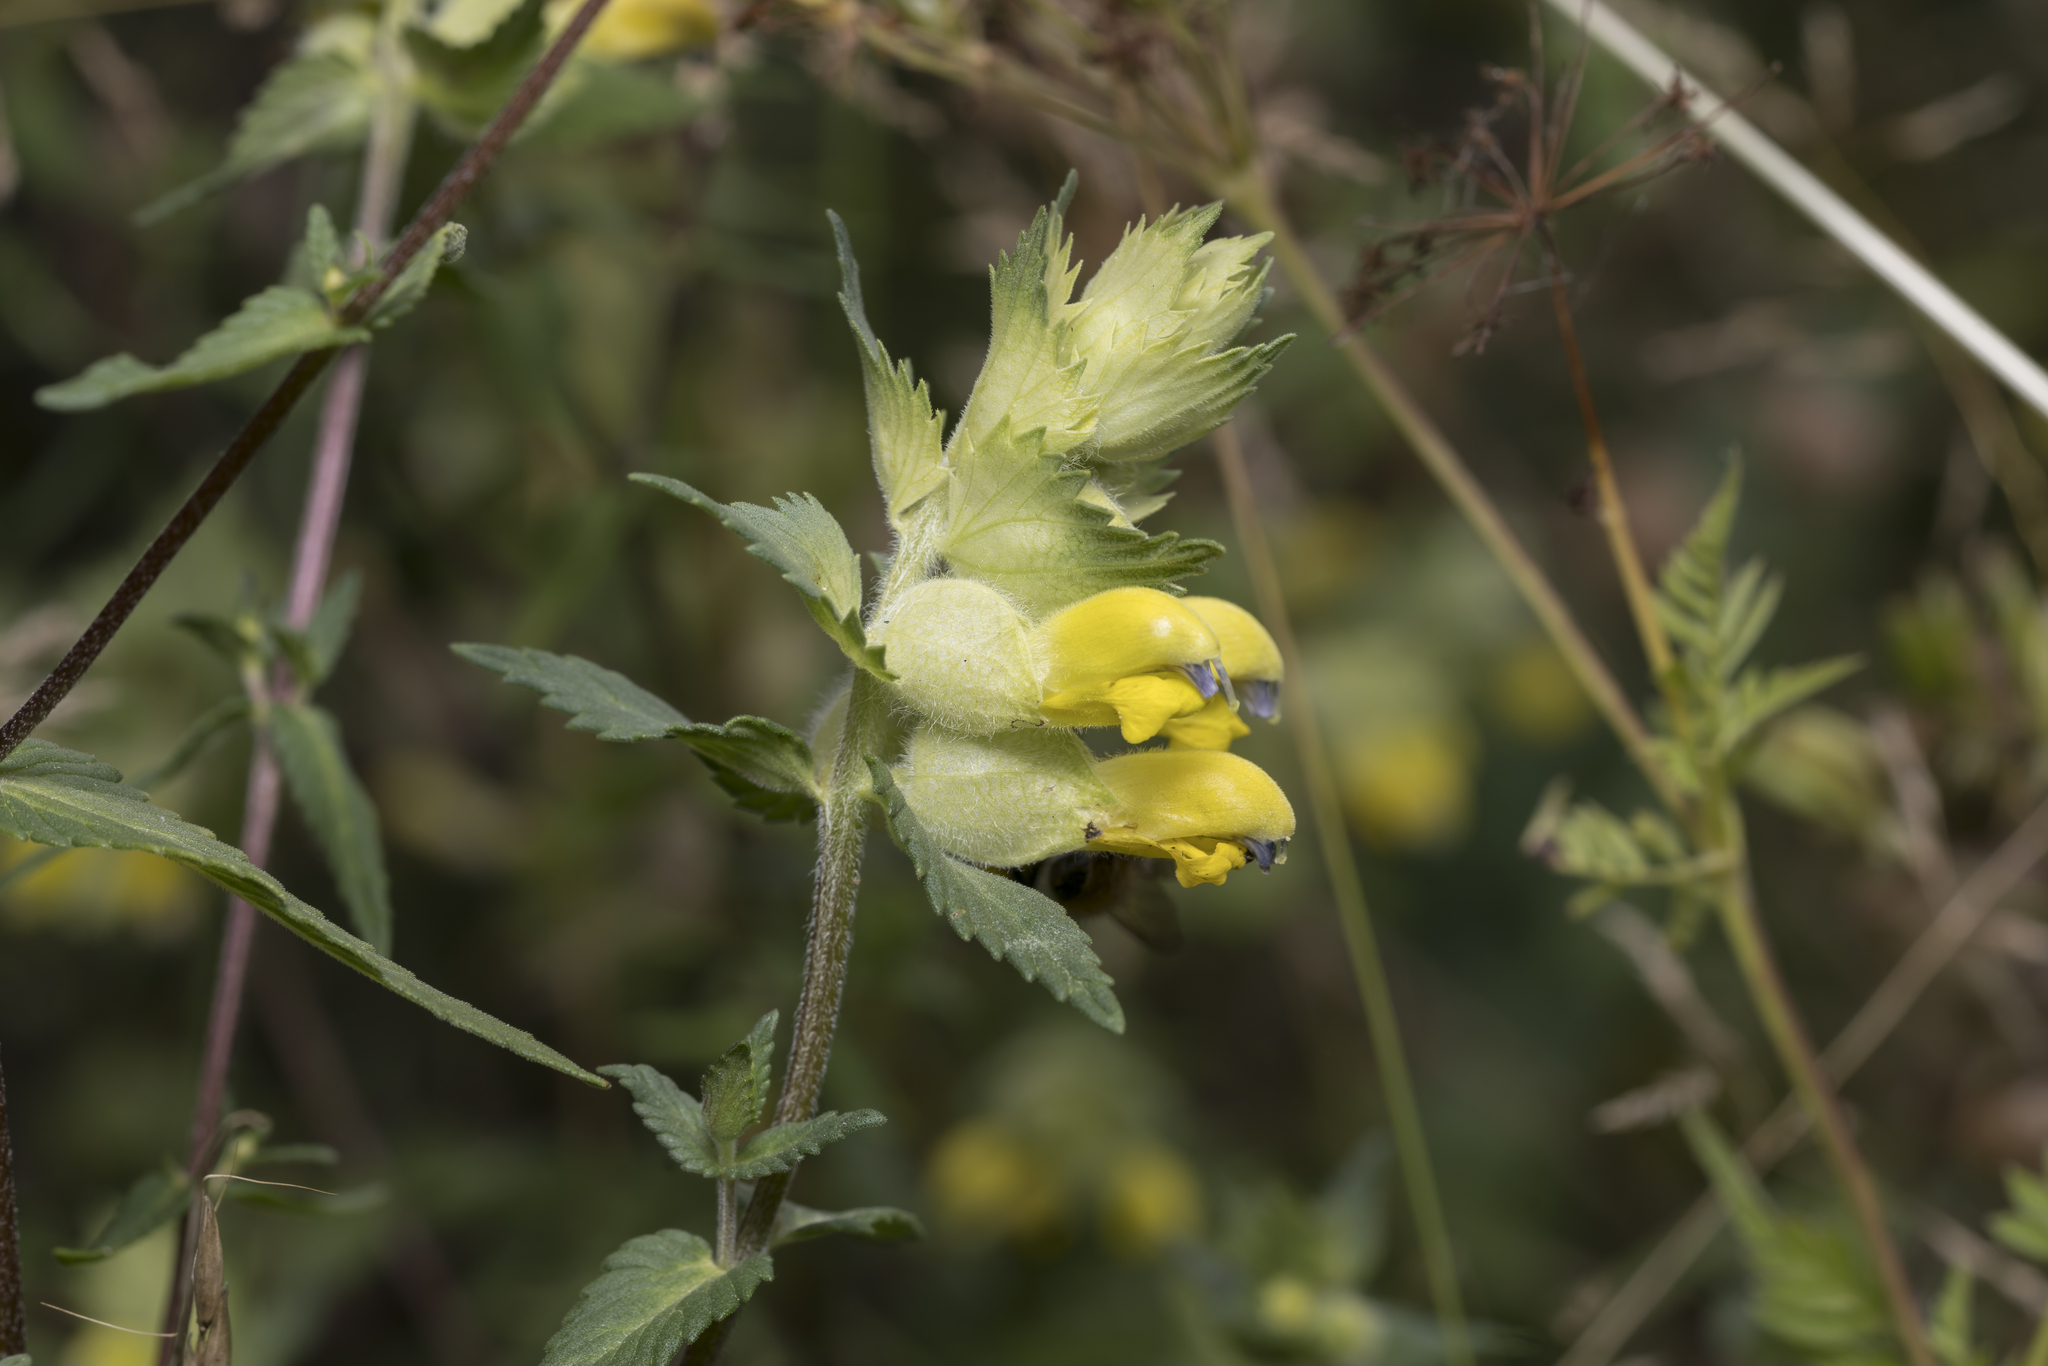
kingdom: Plantae
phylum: Tracheophyta
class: Magnoliopsida
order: Lamiales
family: Orobanchaceae
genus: Rhinanthus
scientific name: Rhinanthus alectorolophus
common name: Greater yellow-rattle
